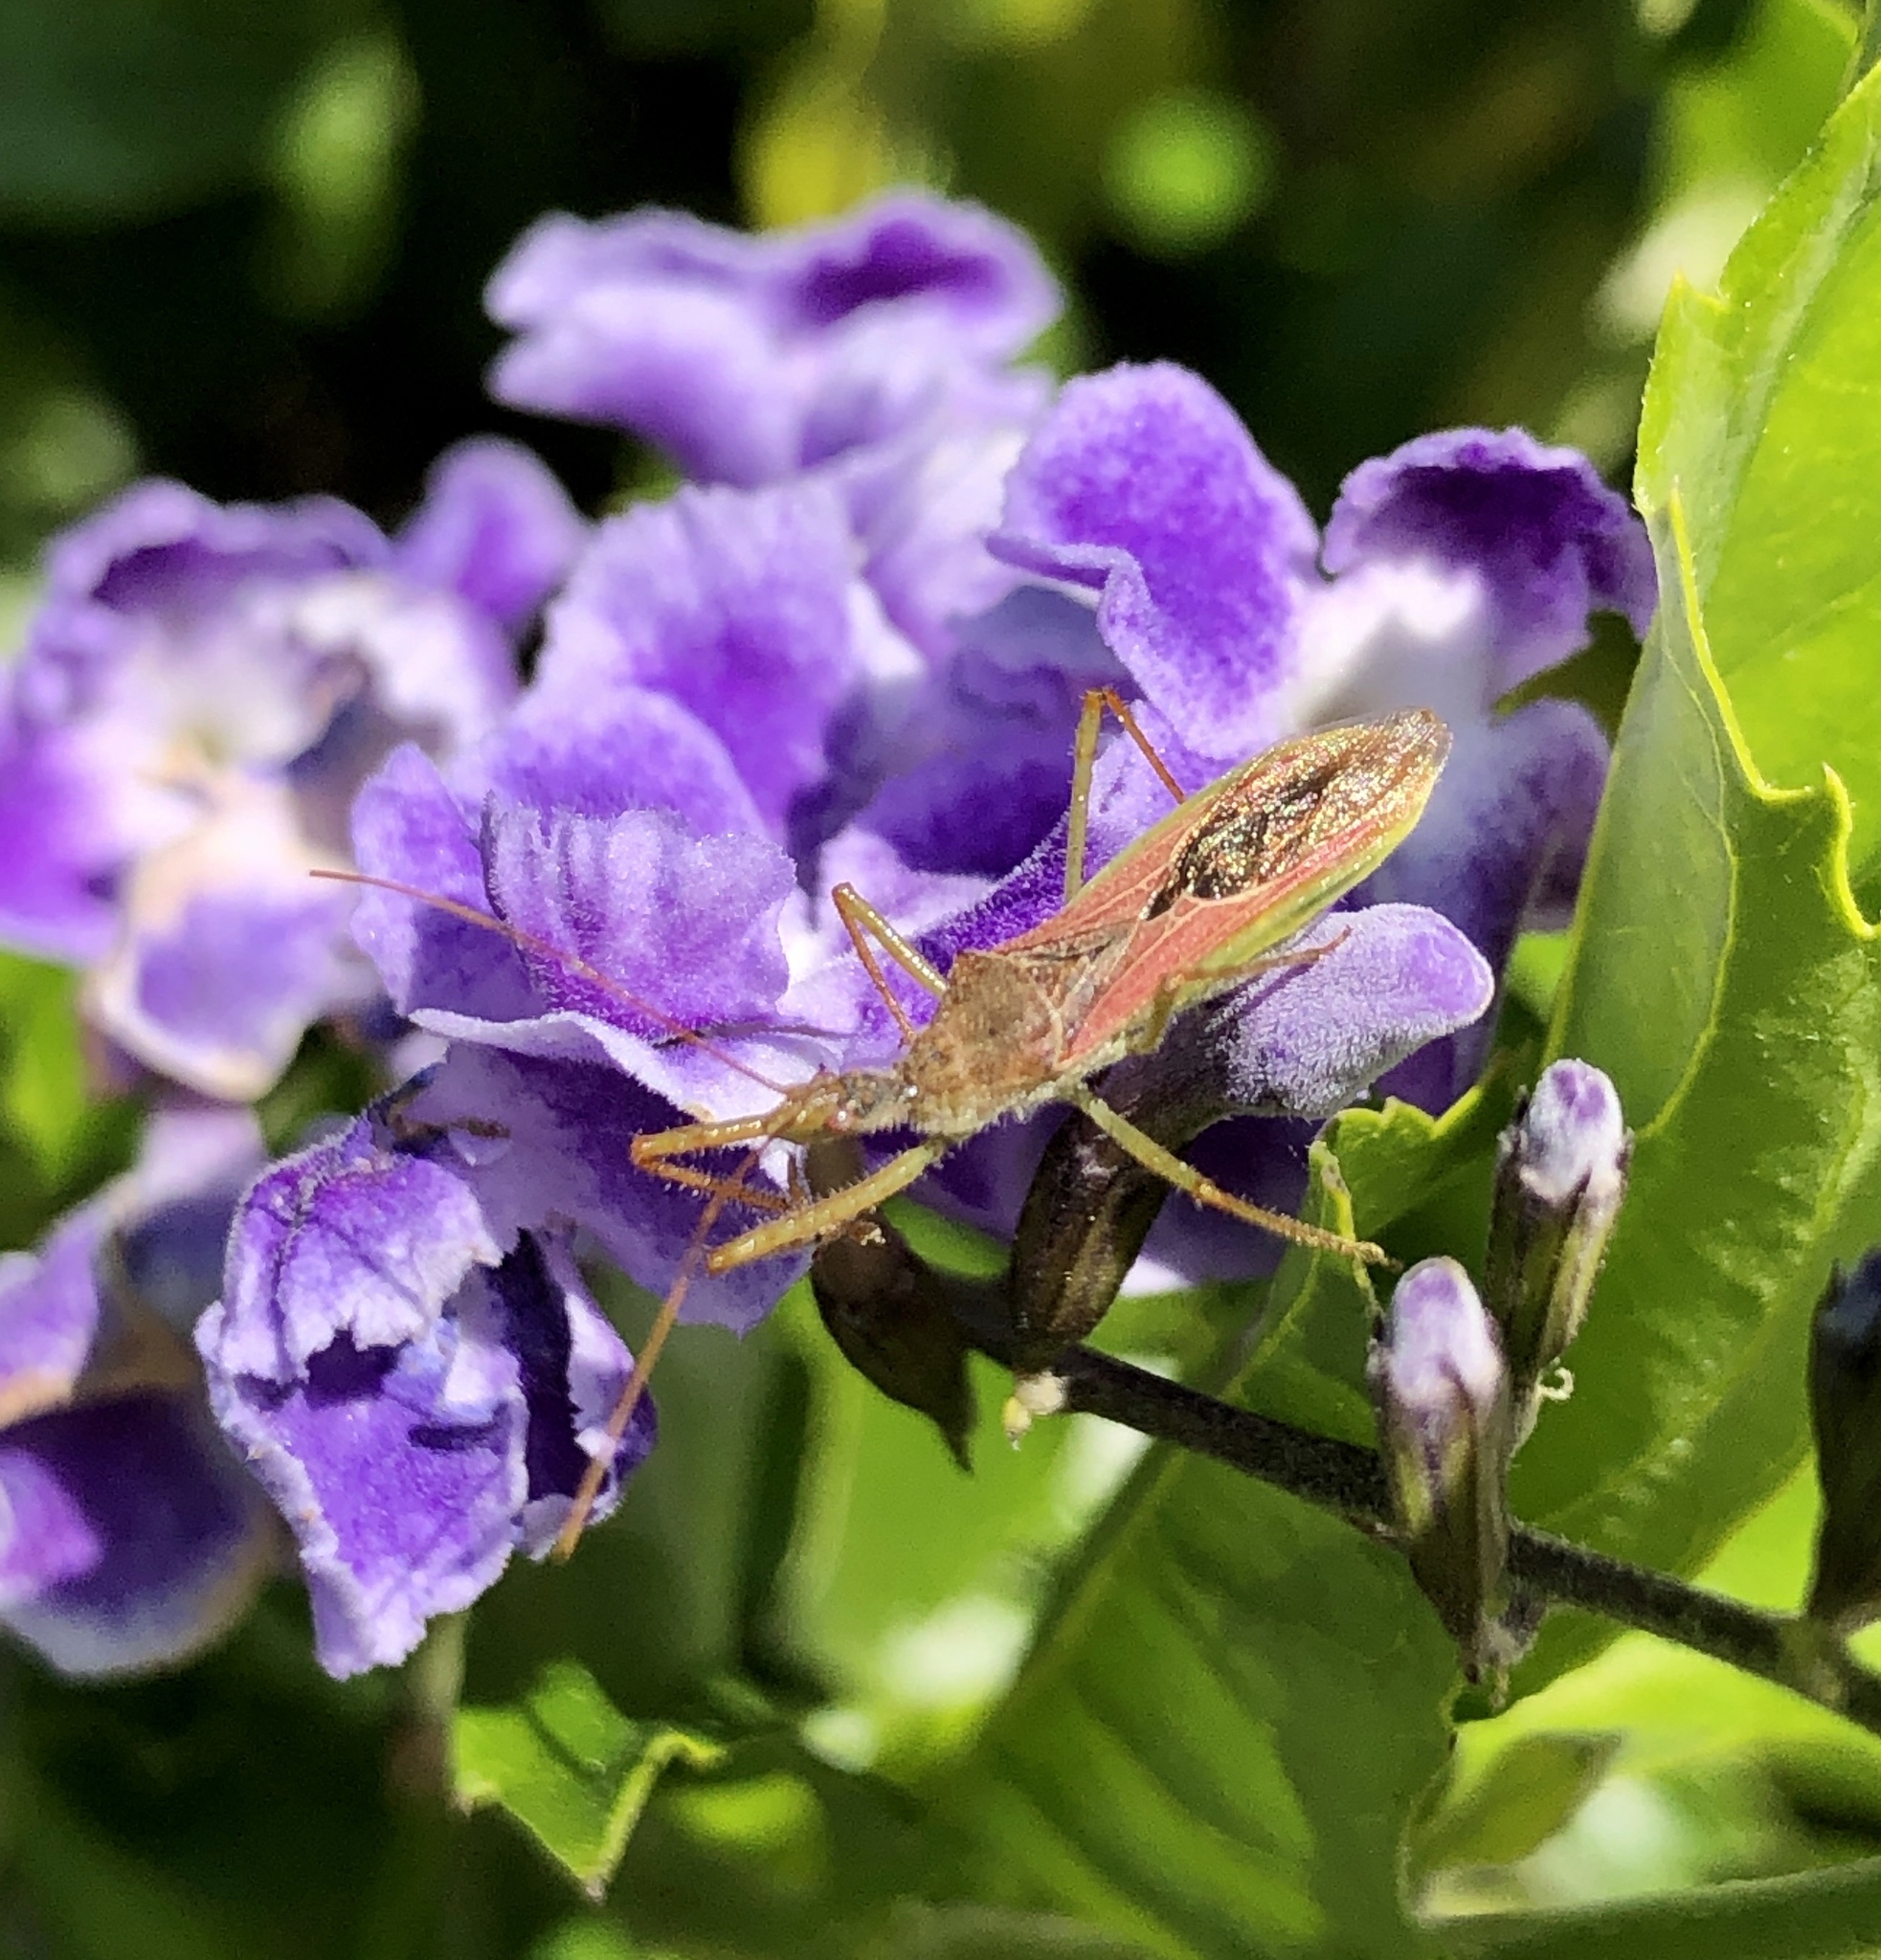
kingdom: Animalia
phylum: Arthropoda
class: Insecta
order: Hemiptera
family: Reduviidae
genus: Zelus
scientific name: Zelus renardii
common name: Assassin bug
